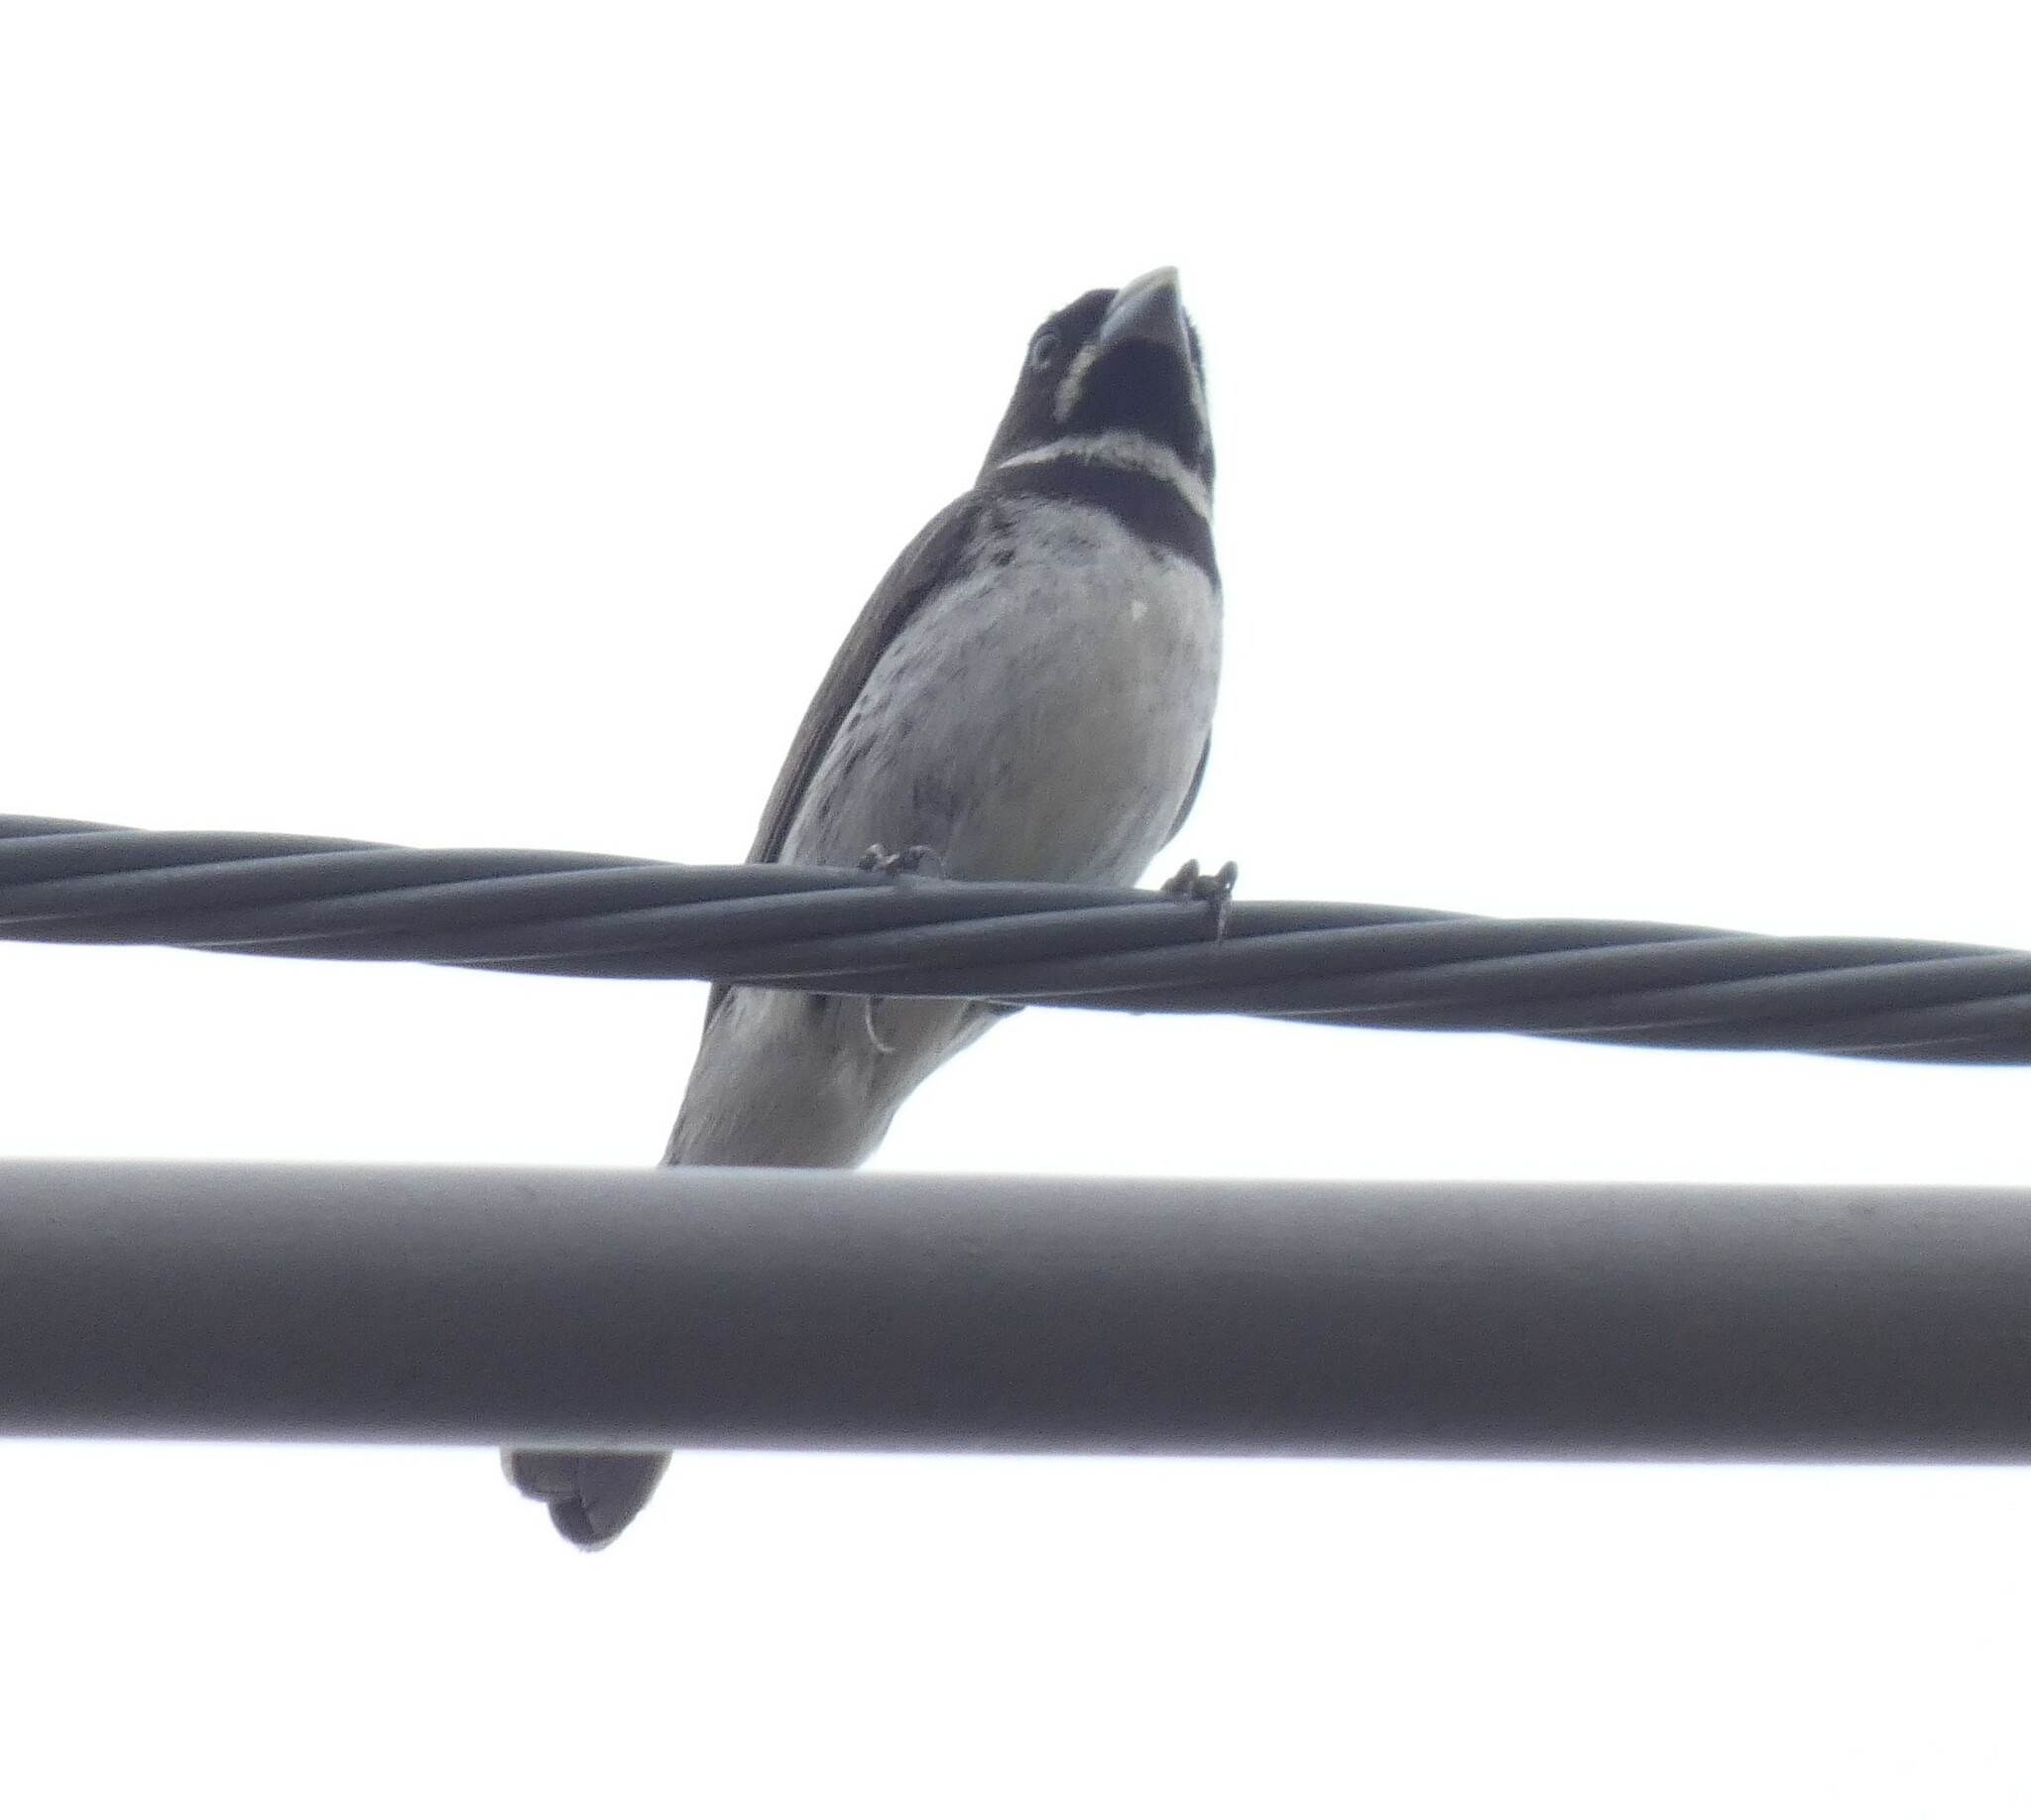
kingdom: Animalia
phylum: Chordata
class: Aves
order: Passeriformes
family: Thraupidae
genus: Sporophila
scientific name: Sporophila caerulescens
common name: Double-collared seedeater
